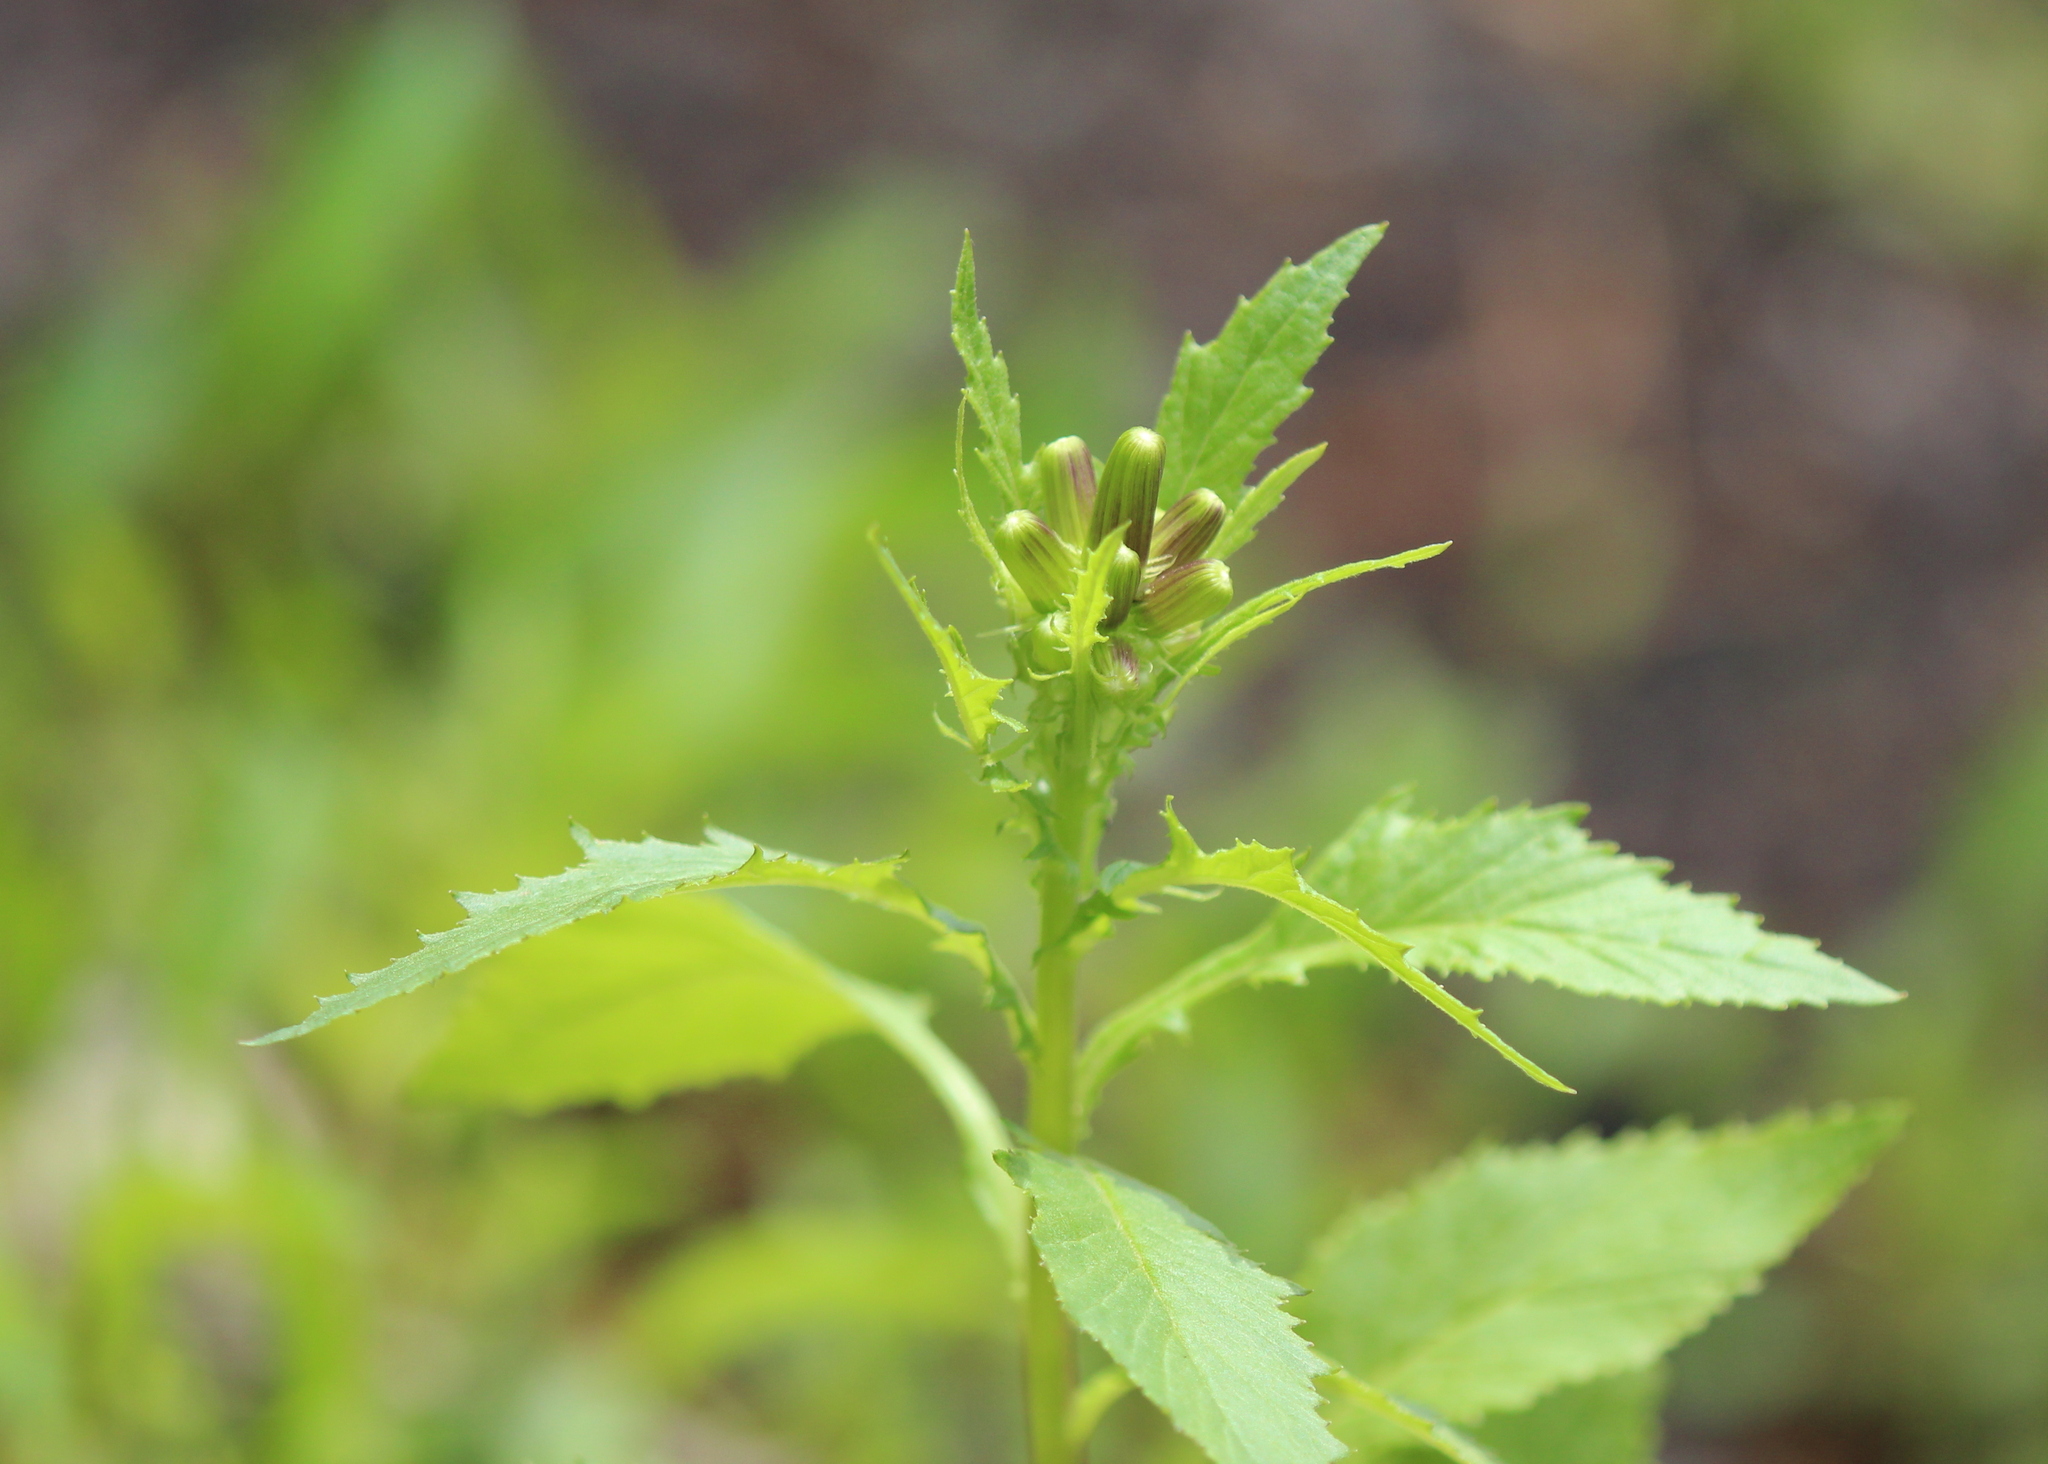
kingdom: Plantae
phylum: Tracheophyta
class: Magnoliopsida
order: Asterales
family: Asteraceae
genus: Erechtites
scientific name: Erechtites hieraciifolius
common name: American burnweed
